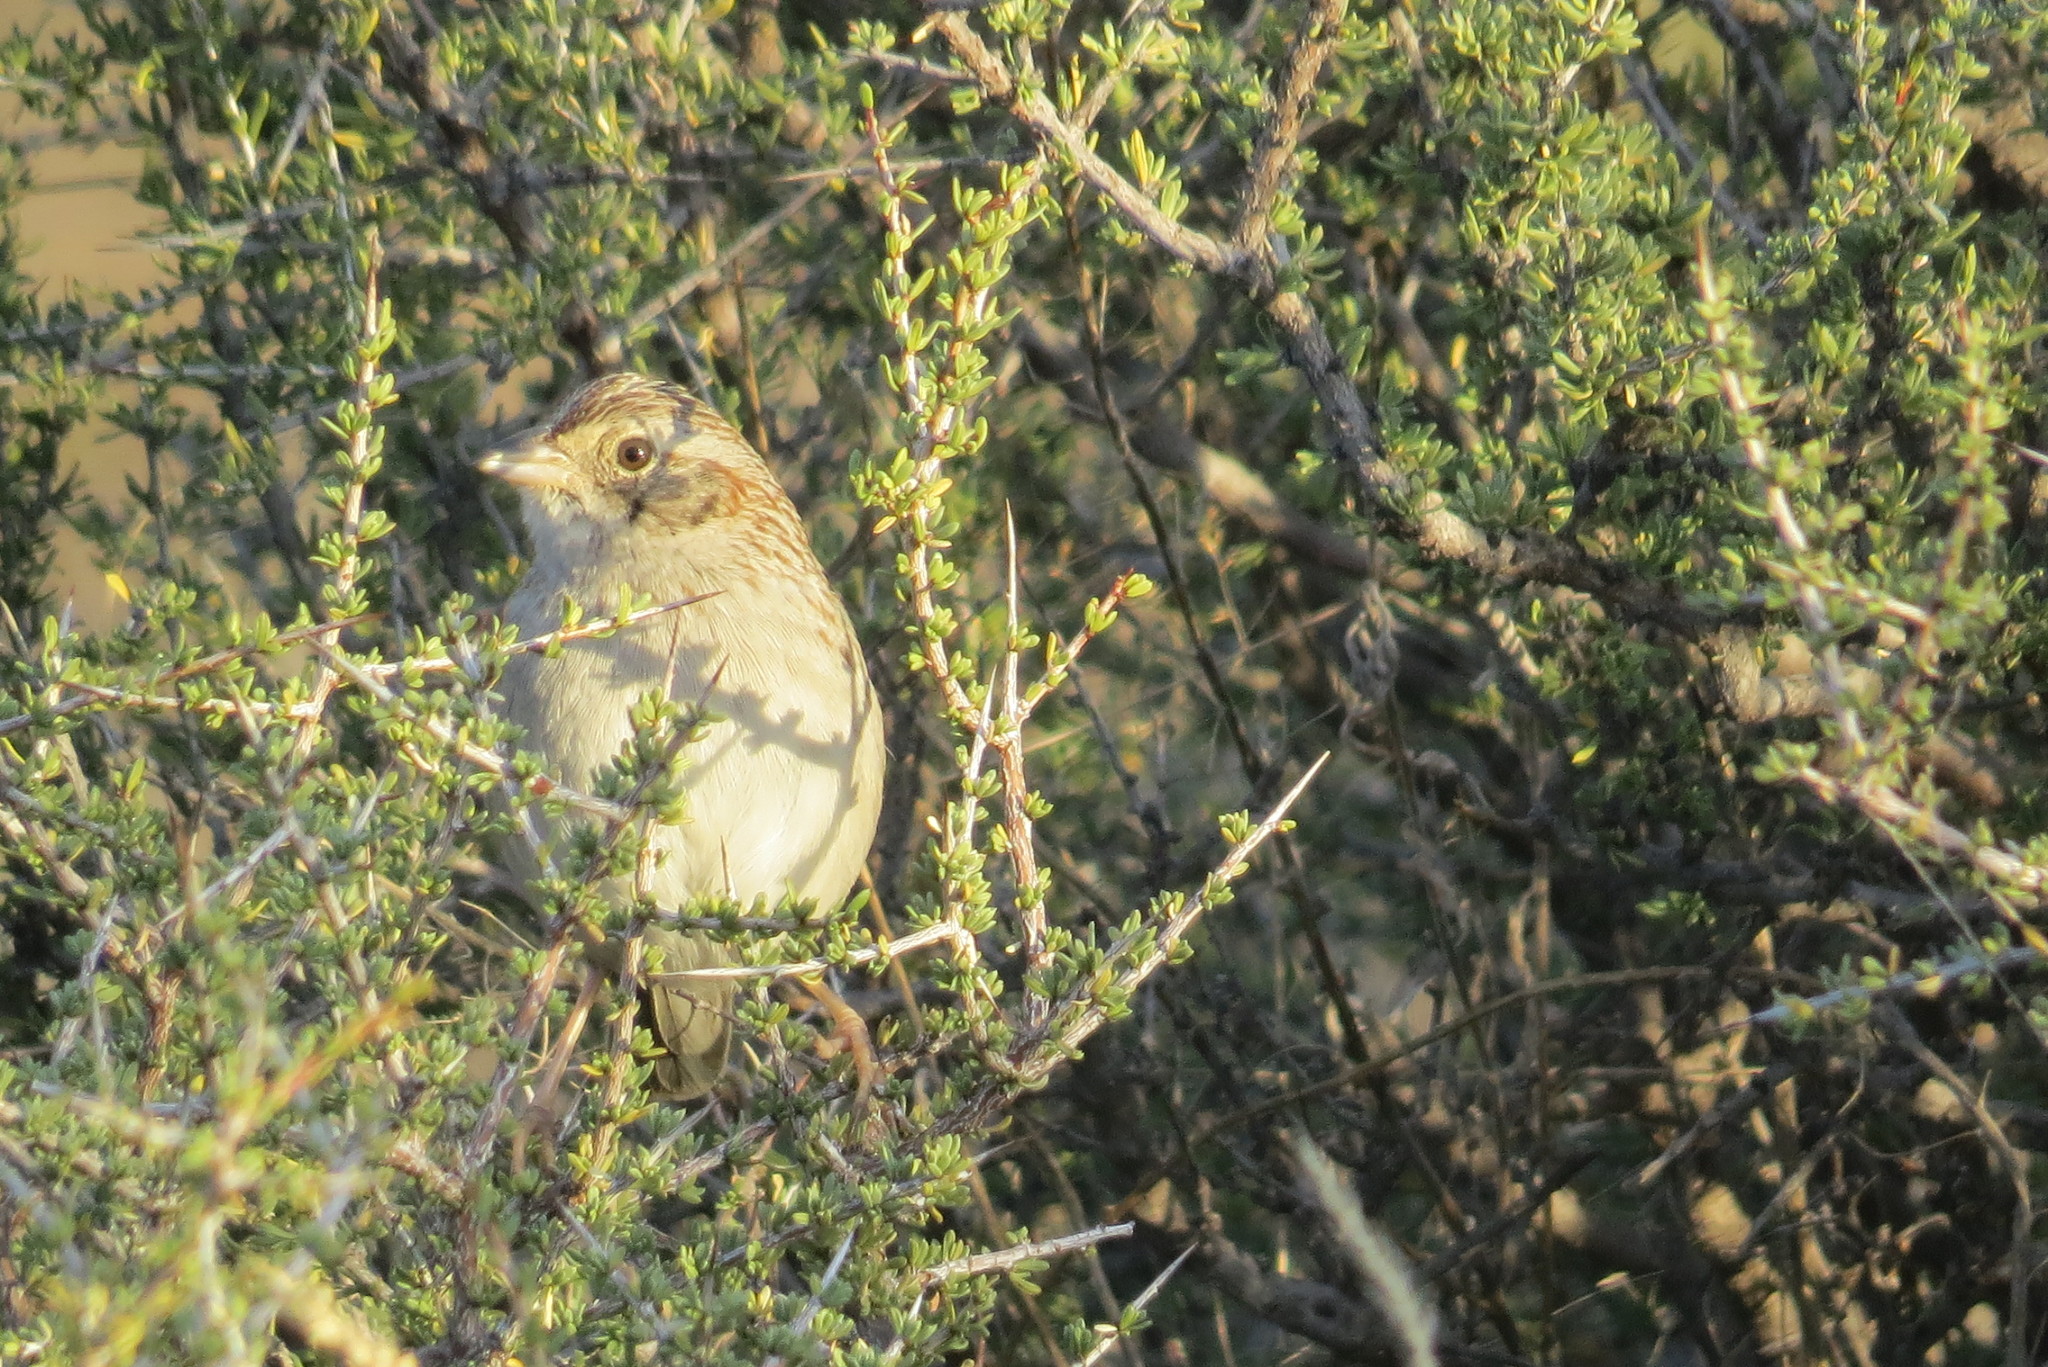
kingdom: Animalia
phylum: Chordata
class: Aves
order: Passeriformes
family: Passerellidae
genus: Peucaea
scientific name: Peucaea cassinii
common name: Cassin's sparrow
